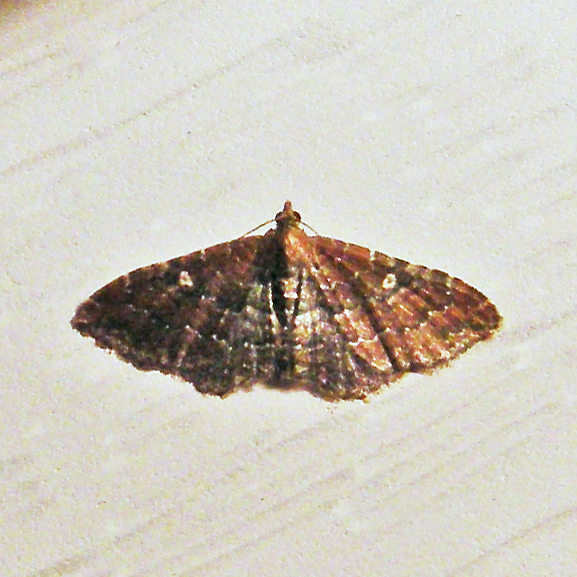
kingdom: Animalia
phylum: Arthropoda
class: Insecta
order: Lepidoptera
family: Geometridae
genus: Orthonama
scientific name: Orthonama obstipata
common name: The gem
